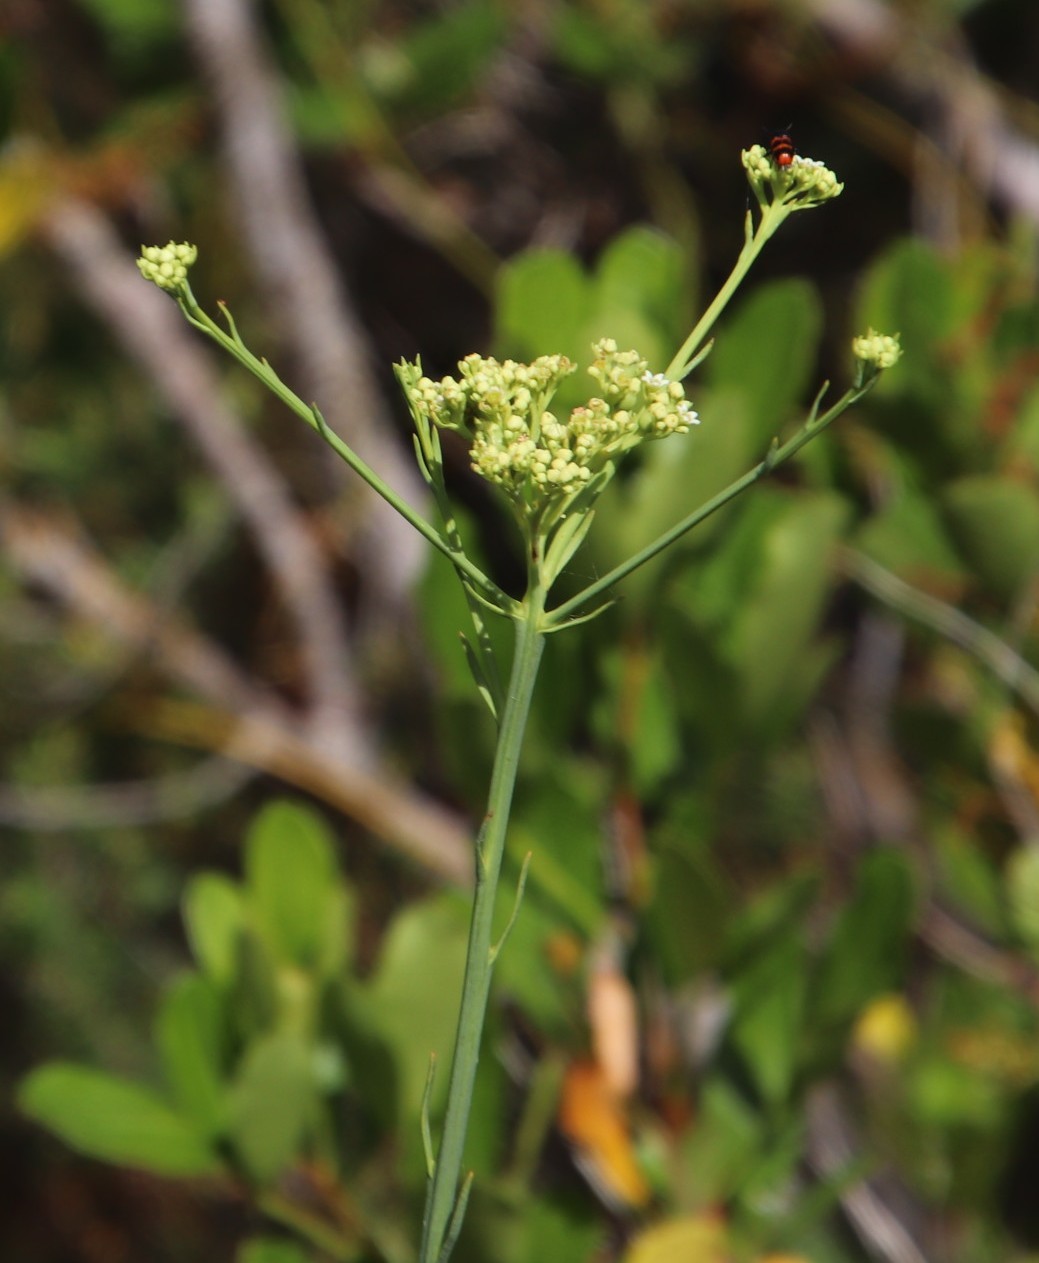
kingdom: Plantae
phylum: Tracheophyta
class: Magnoliopsida
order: Santalales
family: Thesiaceae
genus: Thesium
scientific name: Thesium strictum
